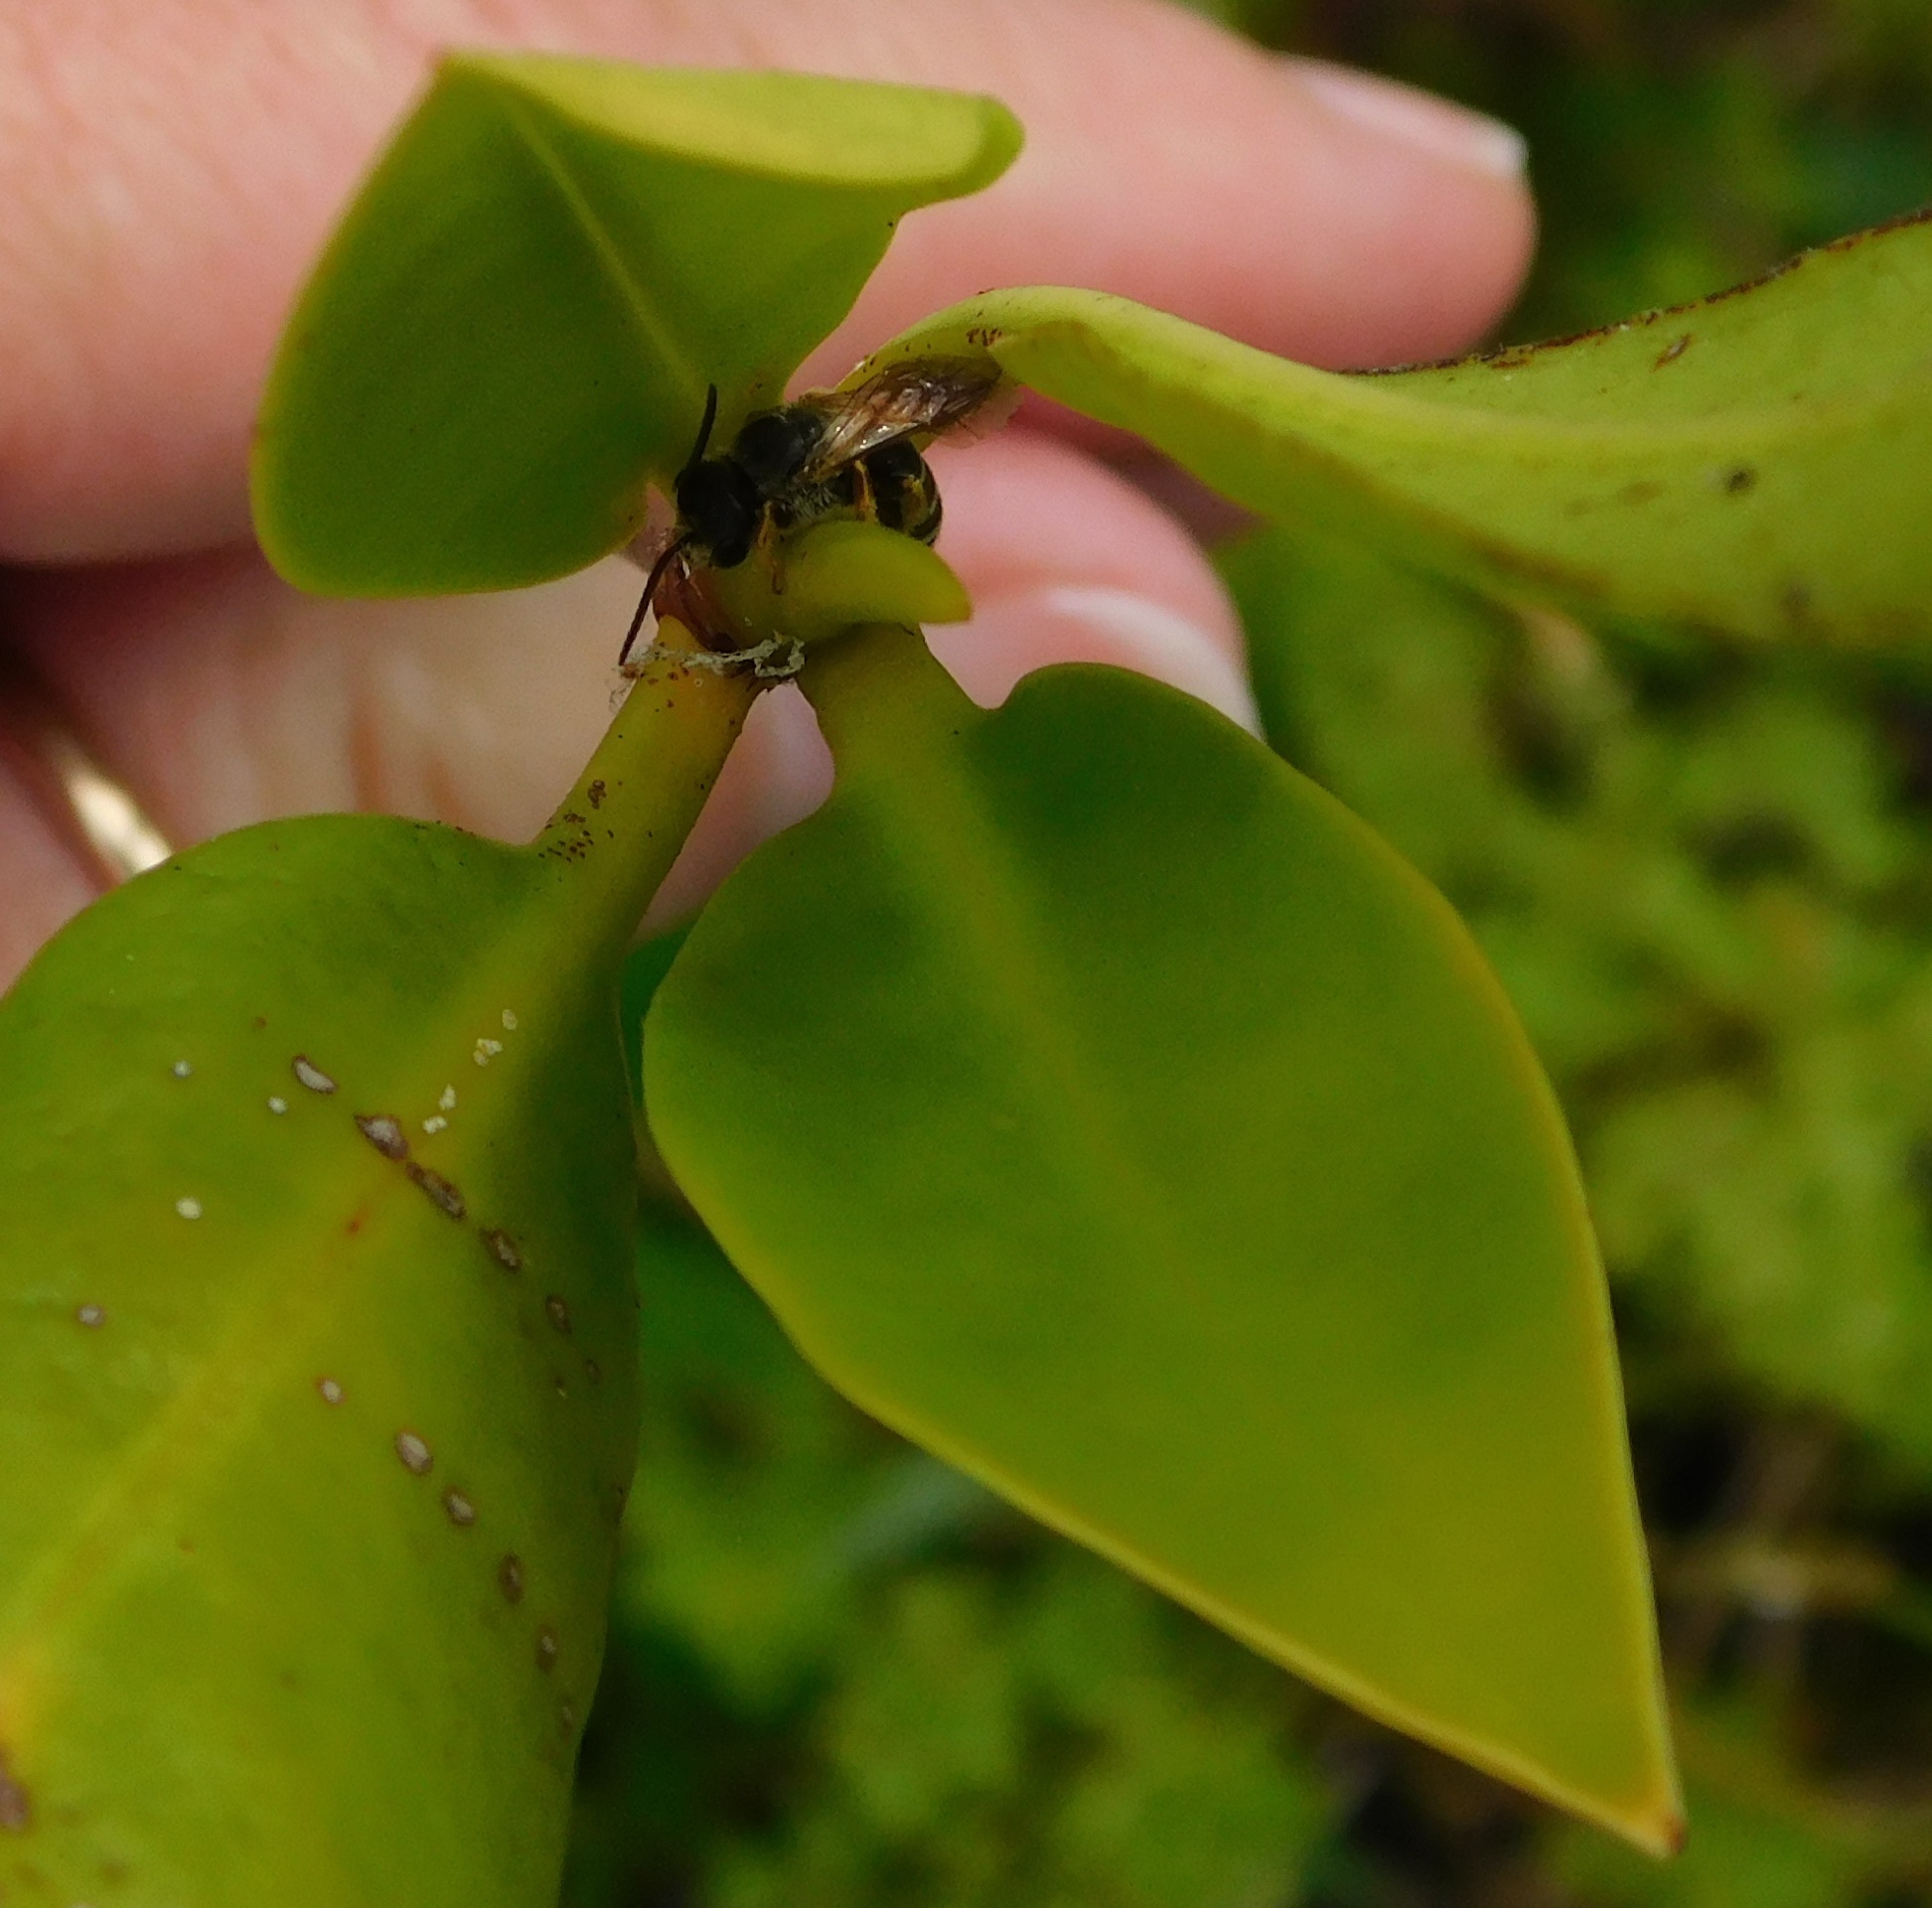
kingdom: Animalia
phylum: Arthropoda
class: Insecta
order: Hymenoptera
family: Halictidae
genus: Halictus
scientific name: Halictus poeyi
